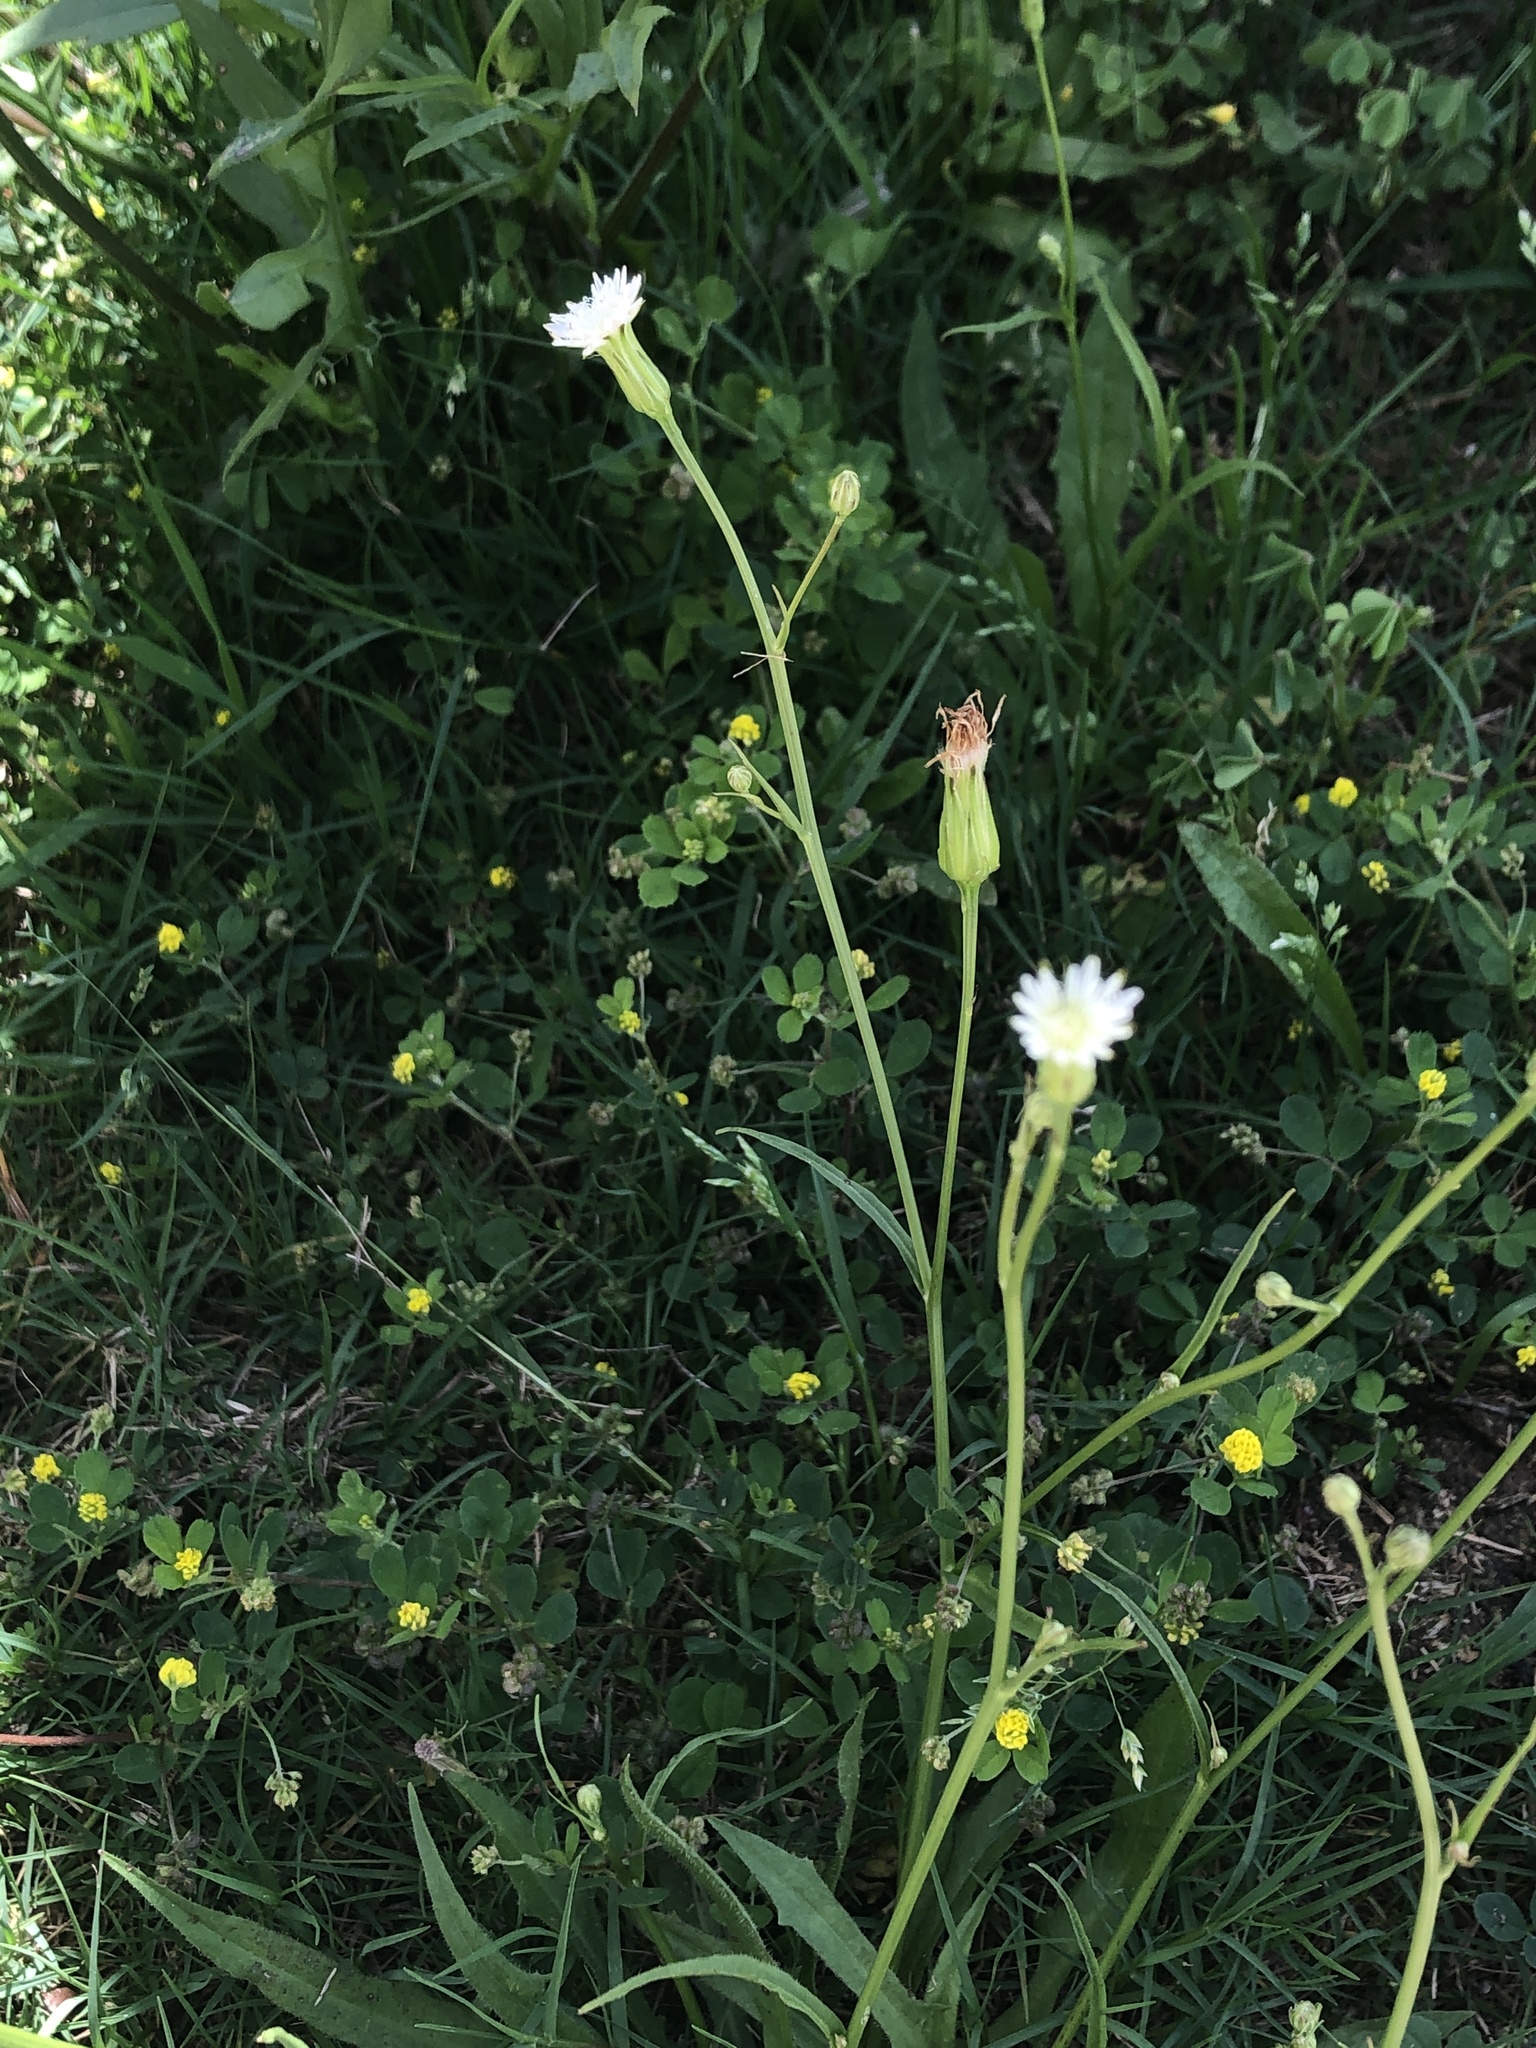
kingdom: Plantae
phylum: Tracheophyta
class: Magnoliopsida
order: Asterales
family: Asteraceae
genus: Hypochaeris
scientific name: Hypochaeris albiflora
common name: White flatweed
